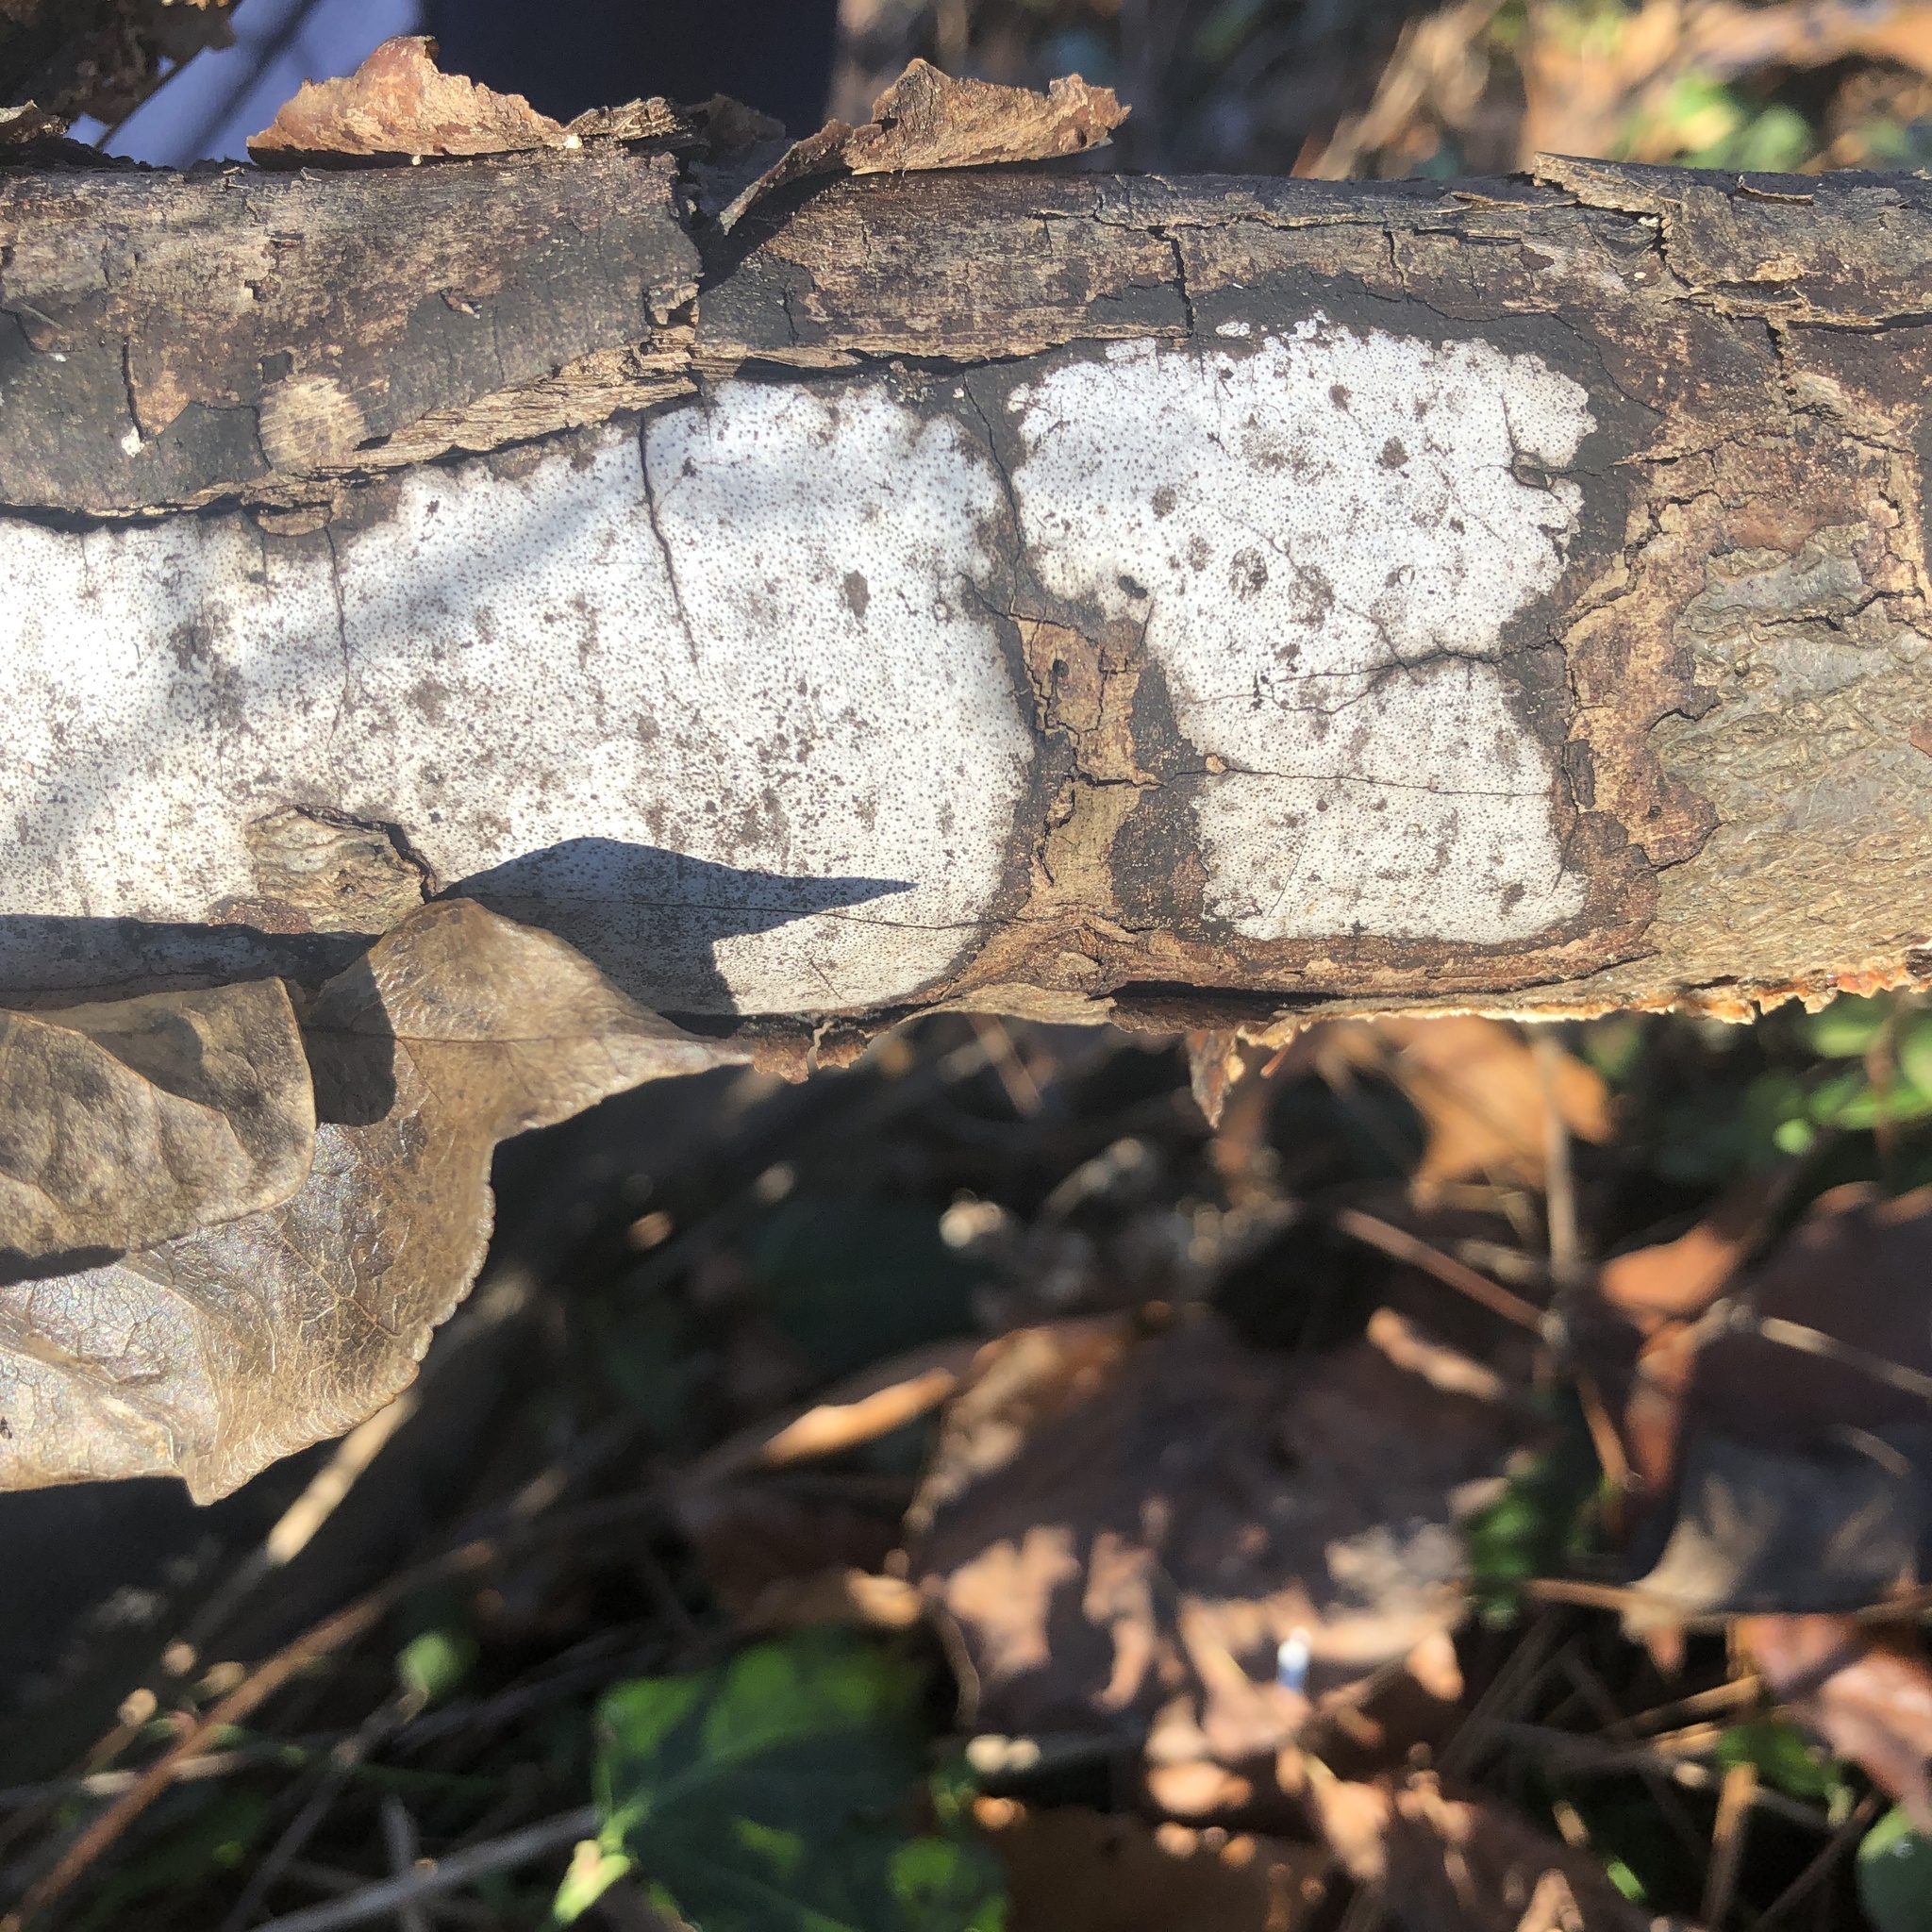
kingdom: Fungi
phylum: Ascomycota
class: Sordariomycetes
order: Xylariales
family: Graphostromataceae
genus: Biscogniauxia
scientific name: Biscogniauxia atropunctata
